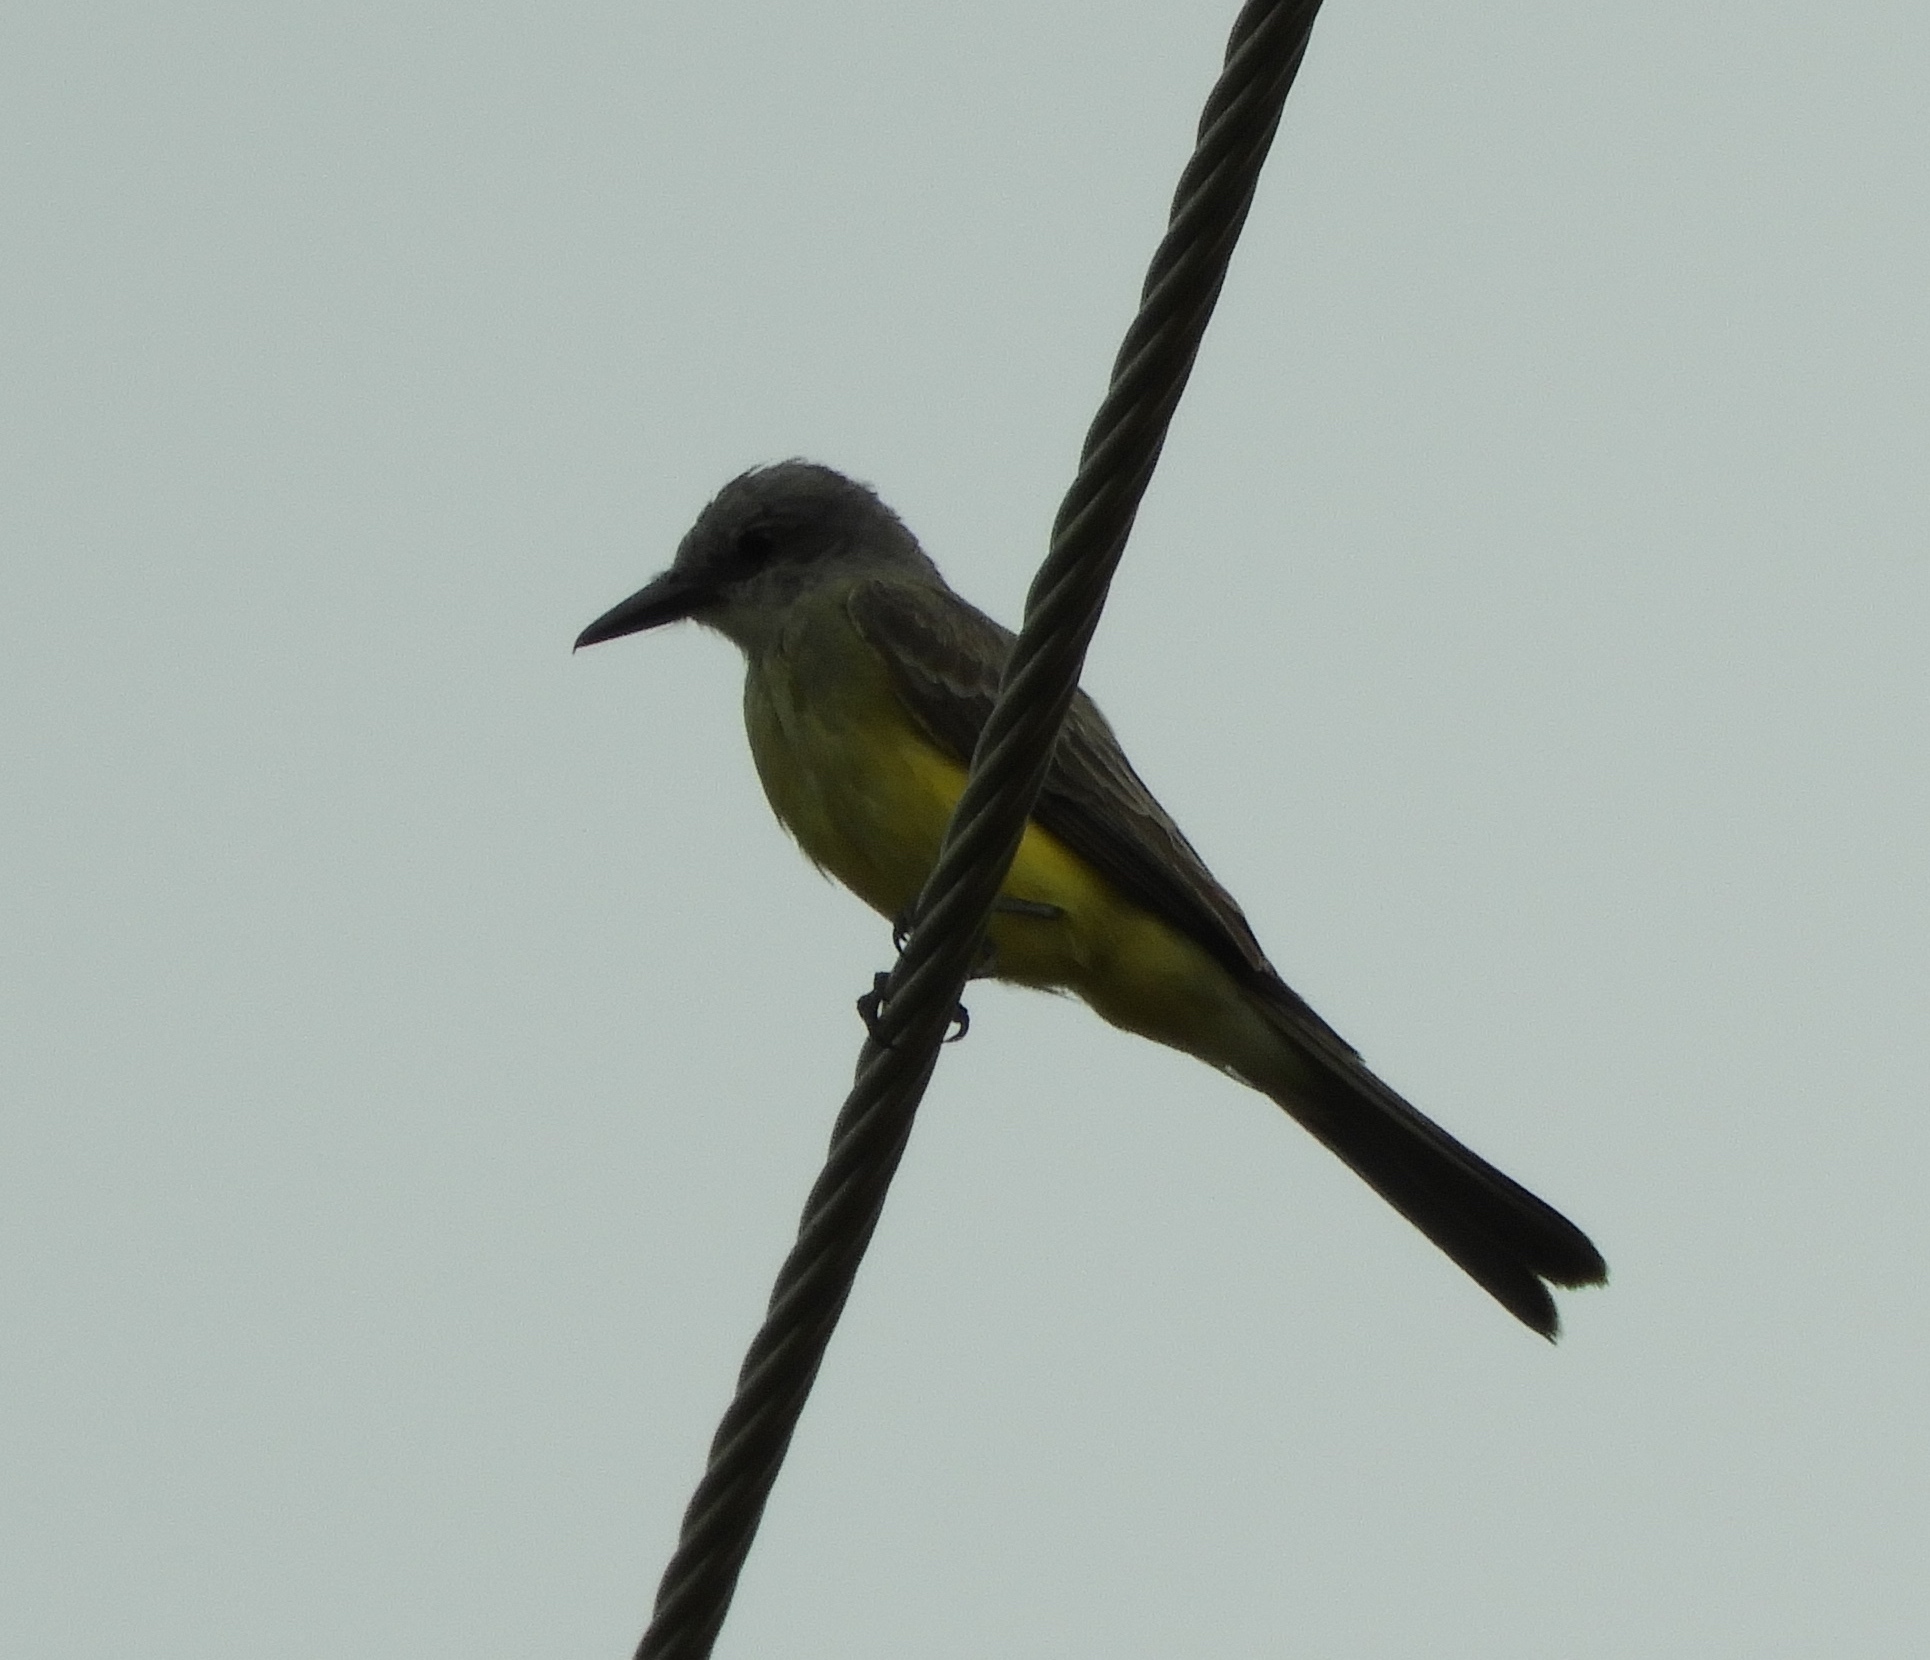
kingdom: Animalia
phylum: Chordata
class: Aves
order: Passeriformes
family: Tyrannidae
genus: Tyrannus
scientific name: Tyrannus melancholicus
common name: Tropical kingbird
